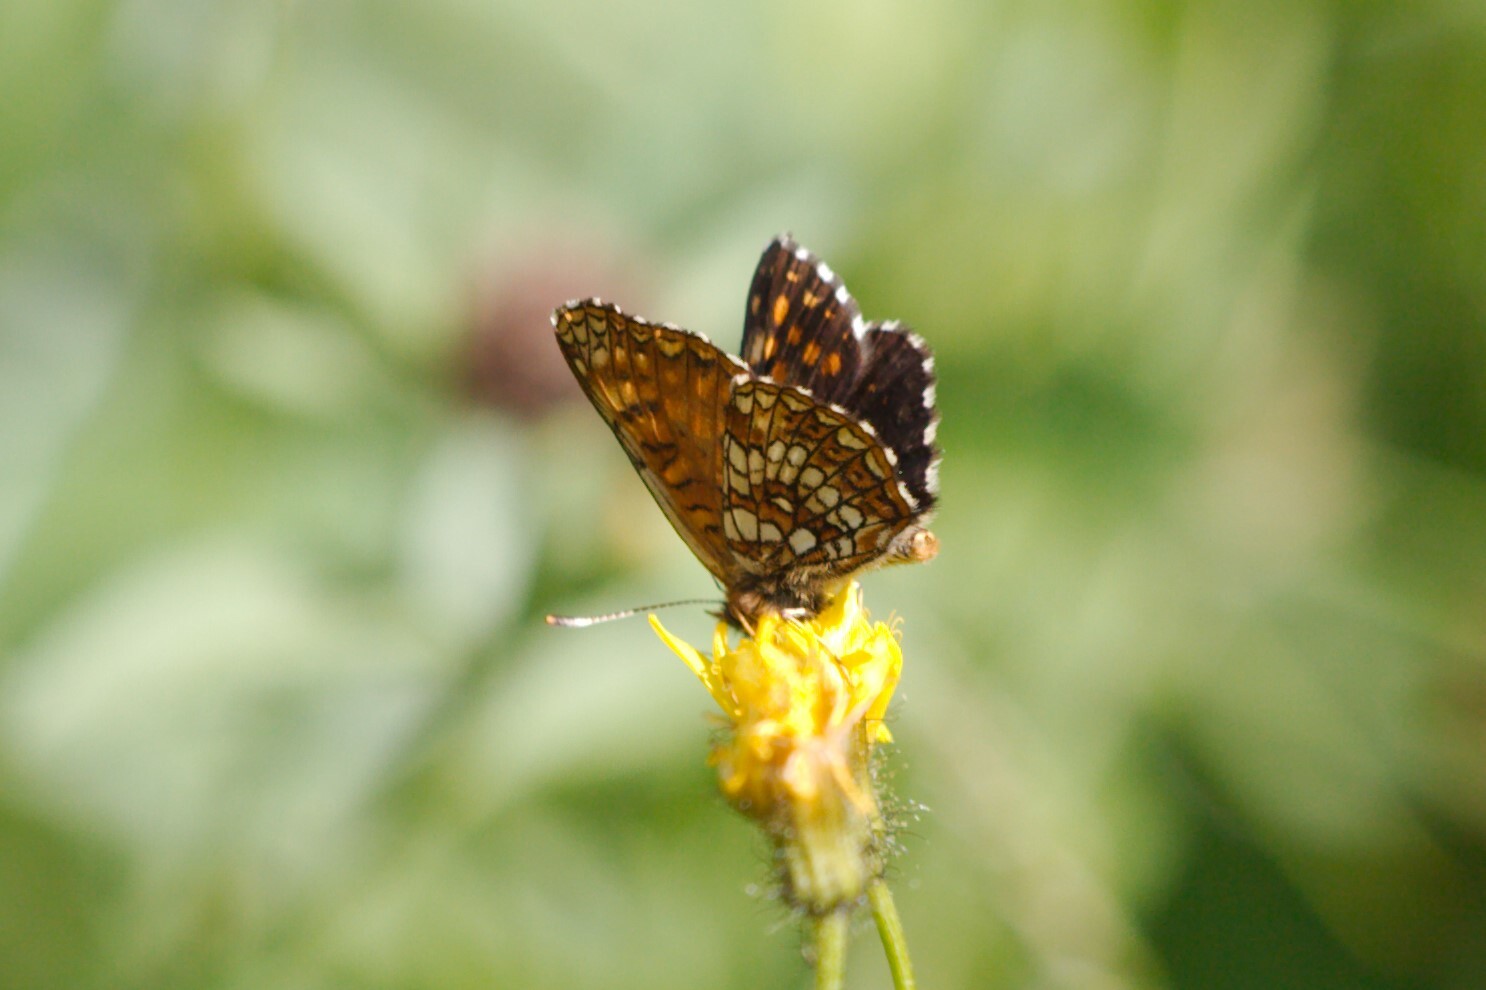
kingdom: Animalia
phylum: Arthropoda
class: Insecta
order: Lepidoptera
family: Nymphalidae
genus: Melitaea
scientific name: Melitaea diamina
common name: False heath fritillary
